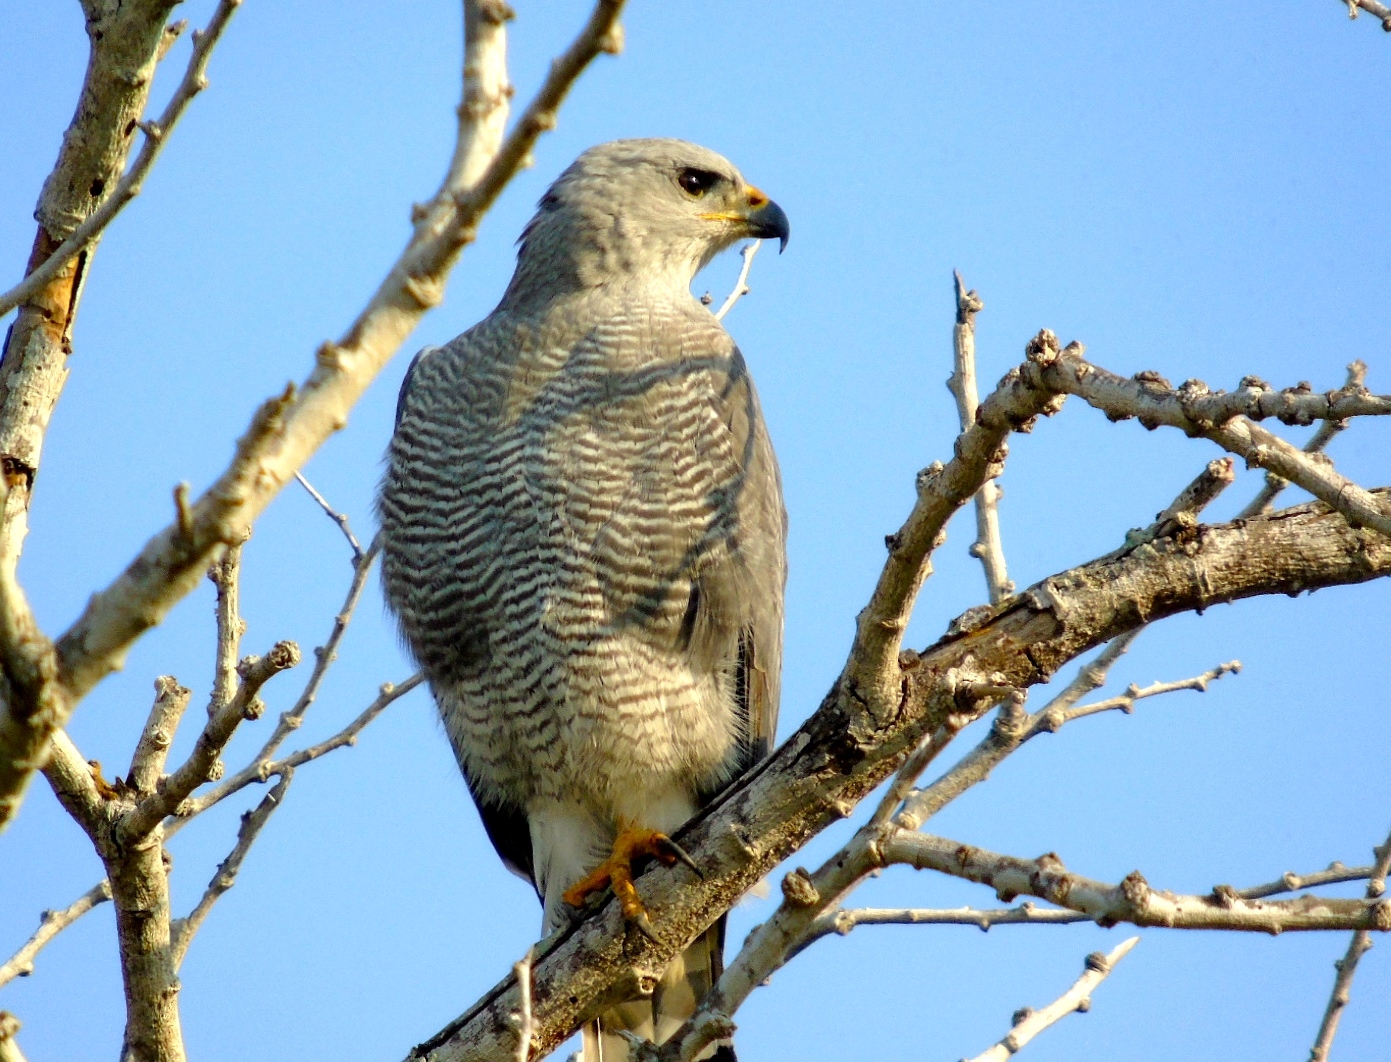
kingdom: Animalia
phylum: Chordata
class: Aves
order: Accipitriformes
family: Accipitridae
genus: Buteo
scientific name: Buteo nitidus
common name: Grey-lined hawk
